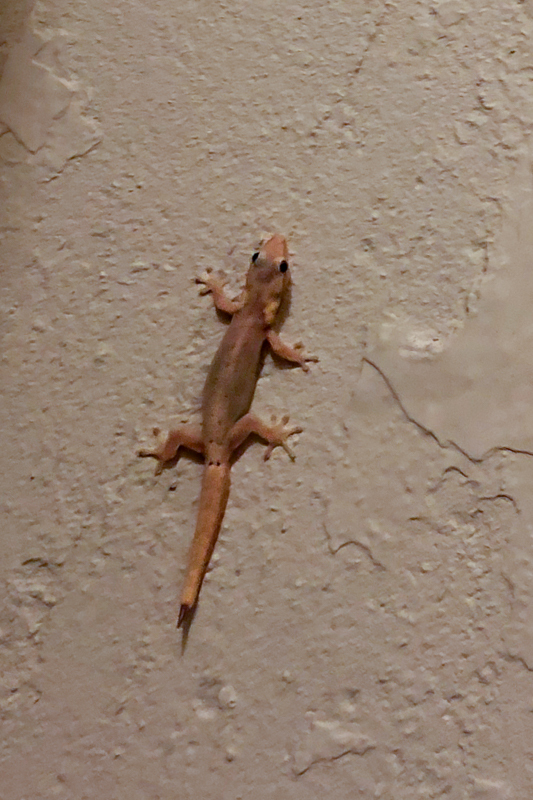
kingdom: Animalia
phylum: Chordata
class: Squamata
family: Gekkonidae
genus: Lepidodactylus
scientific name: Lepidodactylus lugubris
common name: Mourning gecko
